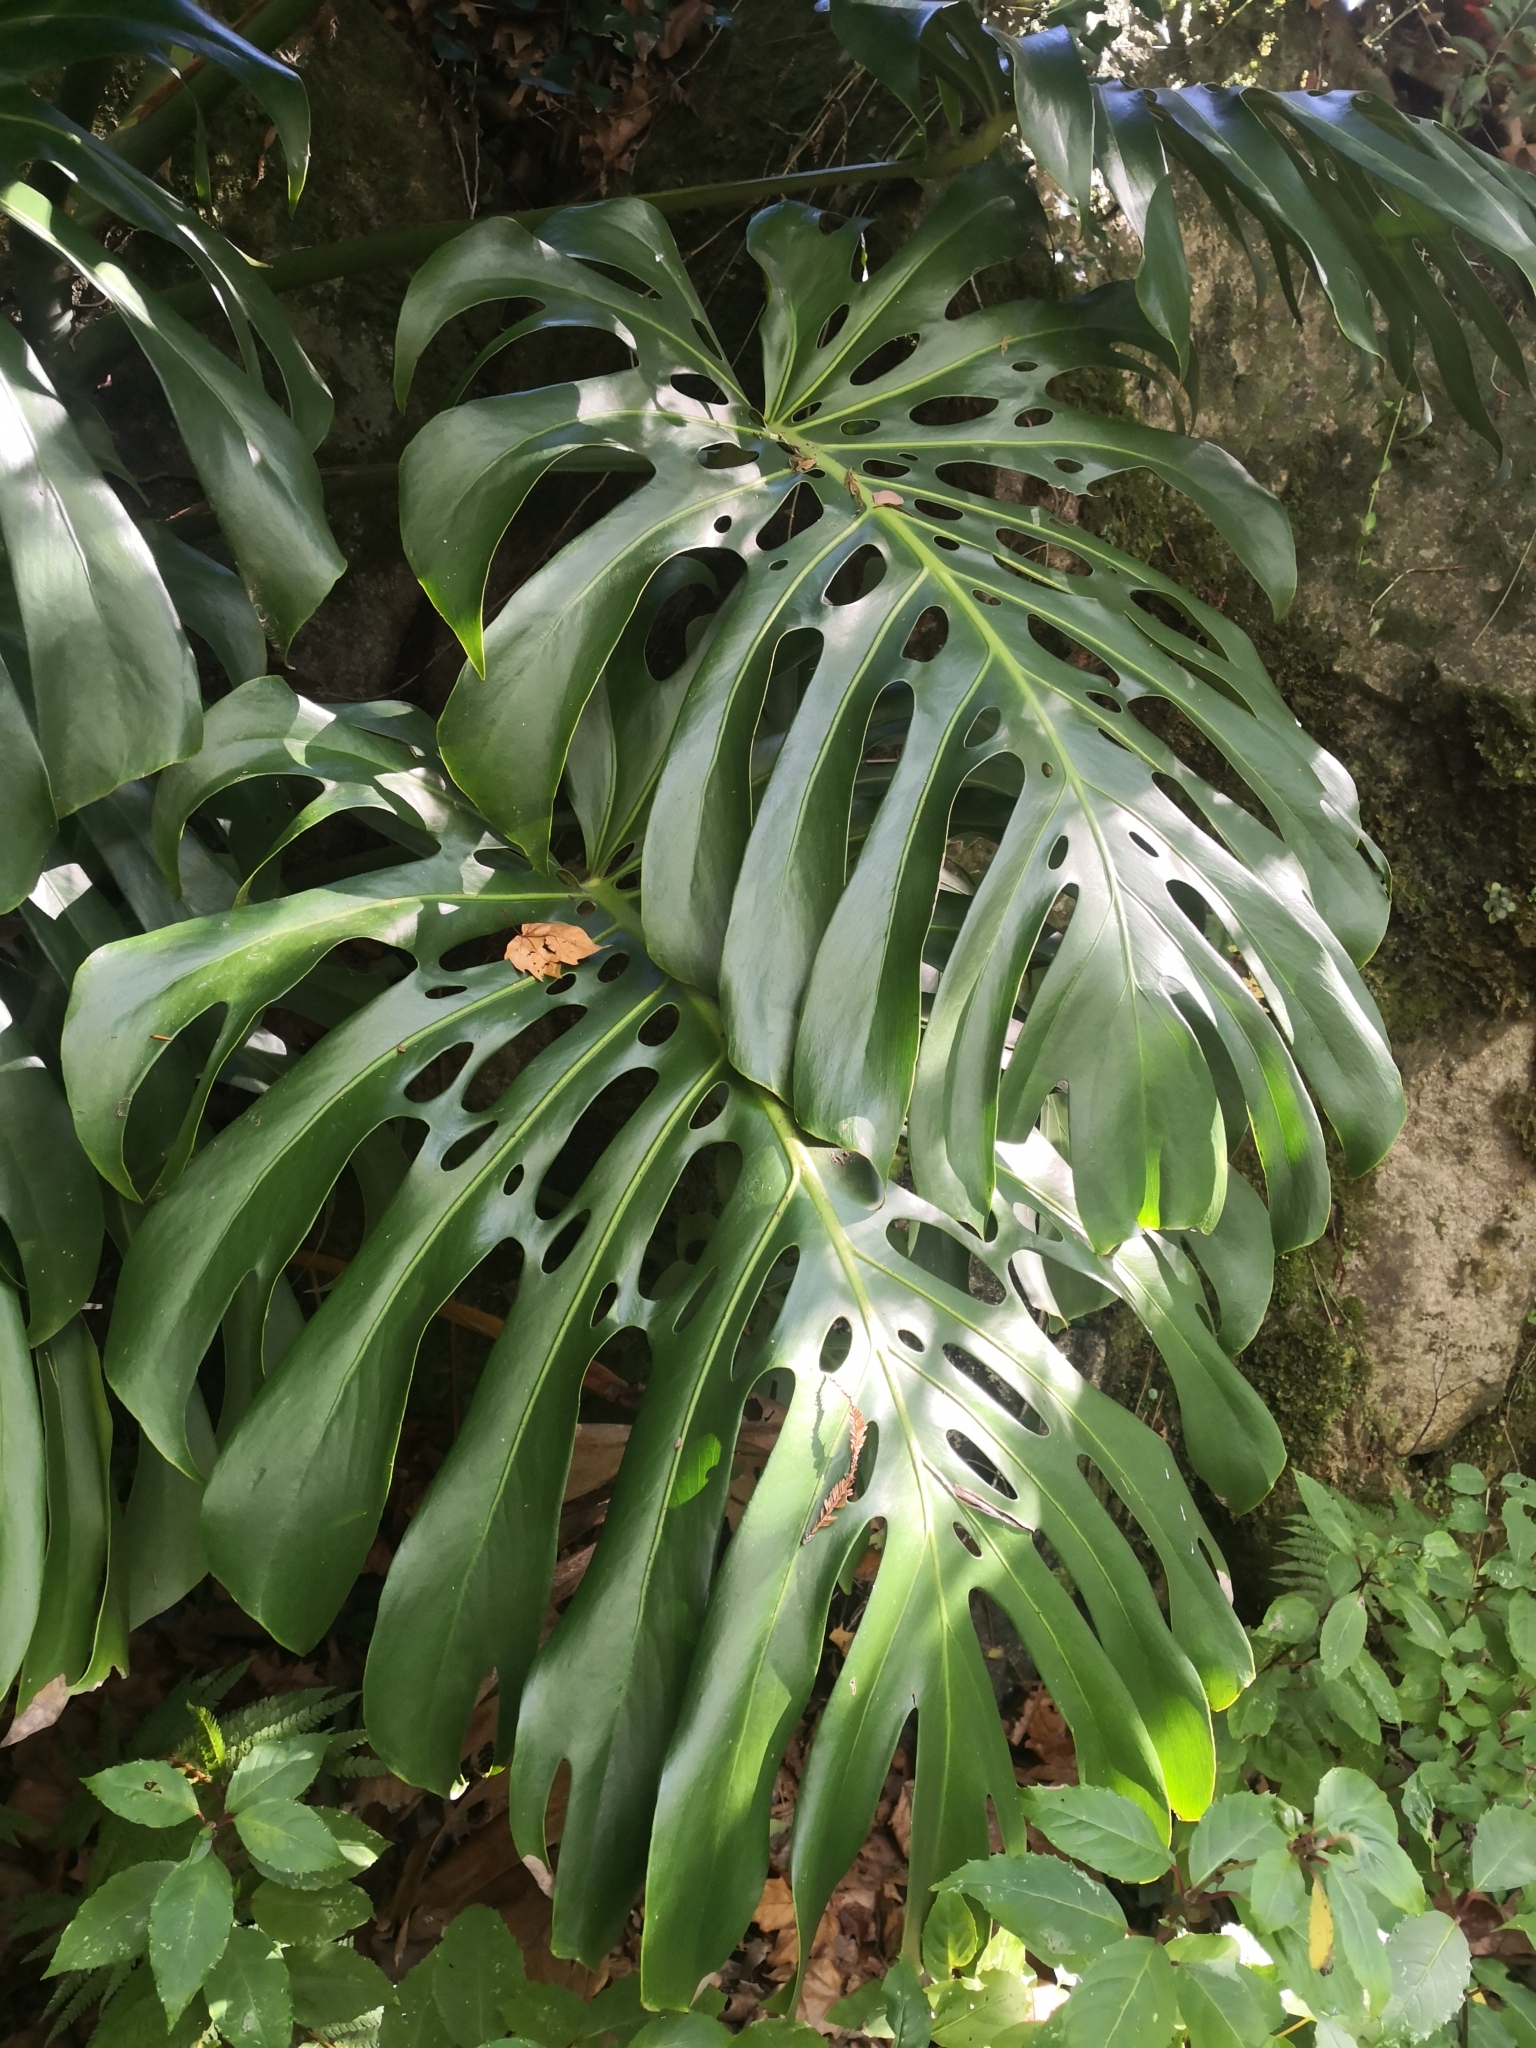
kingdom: Plantae
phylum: Tracheophyta
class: Liliopsida
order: Alismatales
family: Araceae
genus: Monstera
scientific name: Monstera deliciosa
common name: Cut-leaf-philodendron
